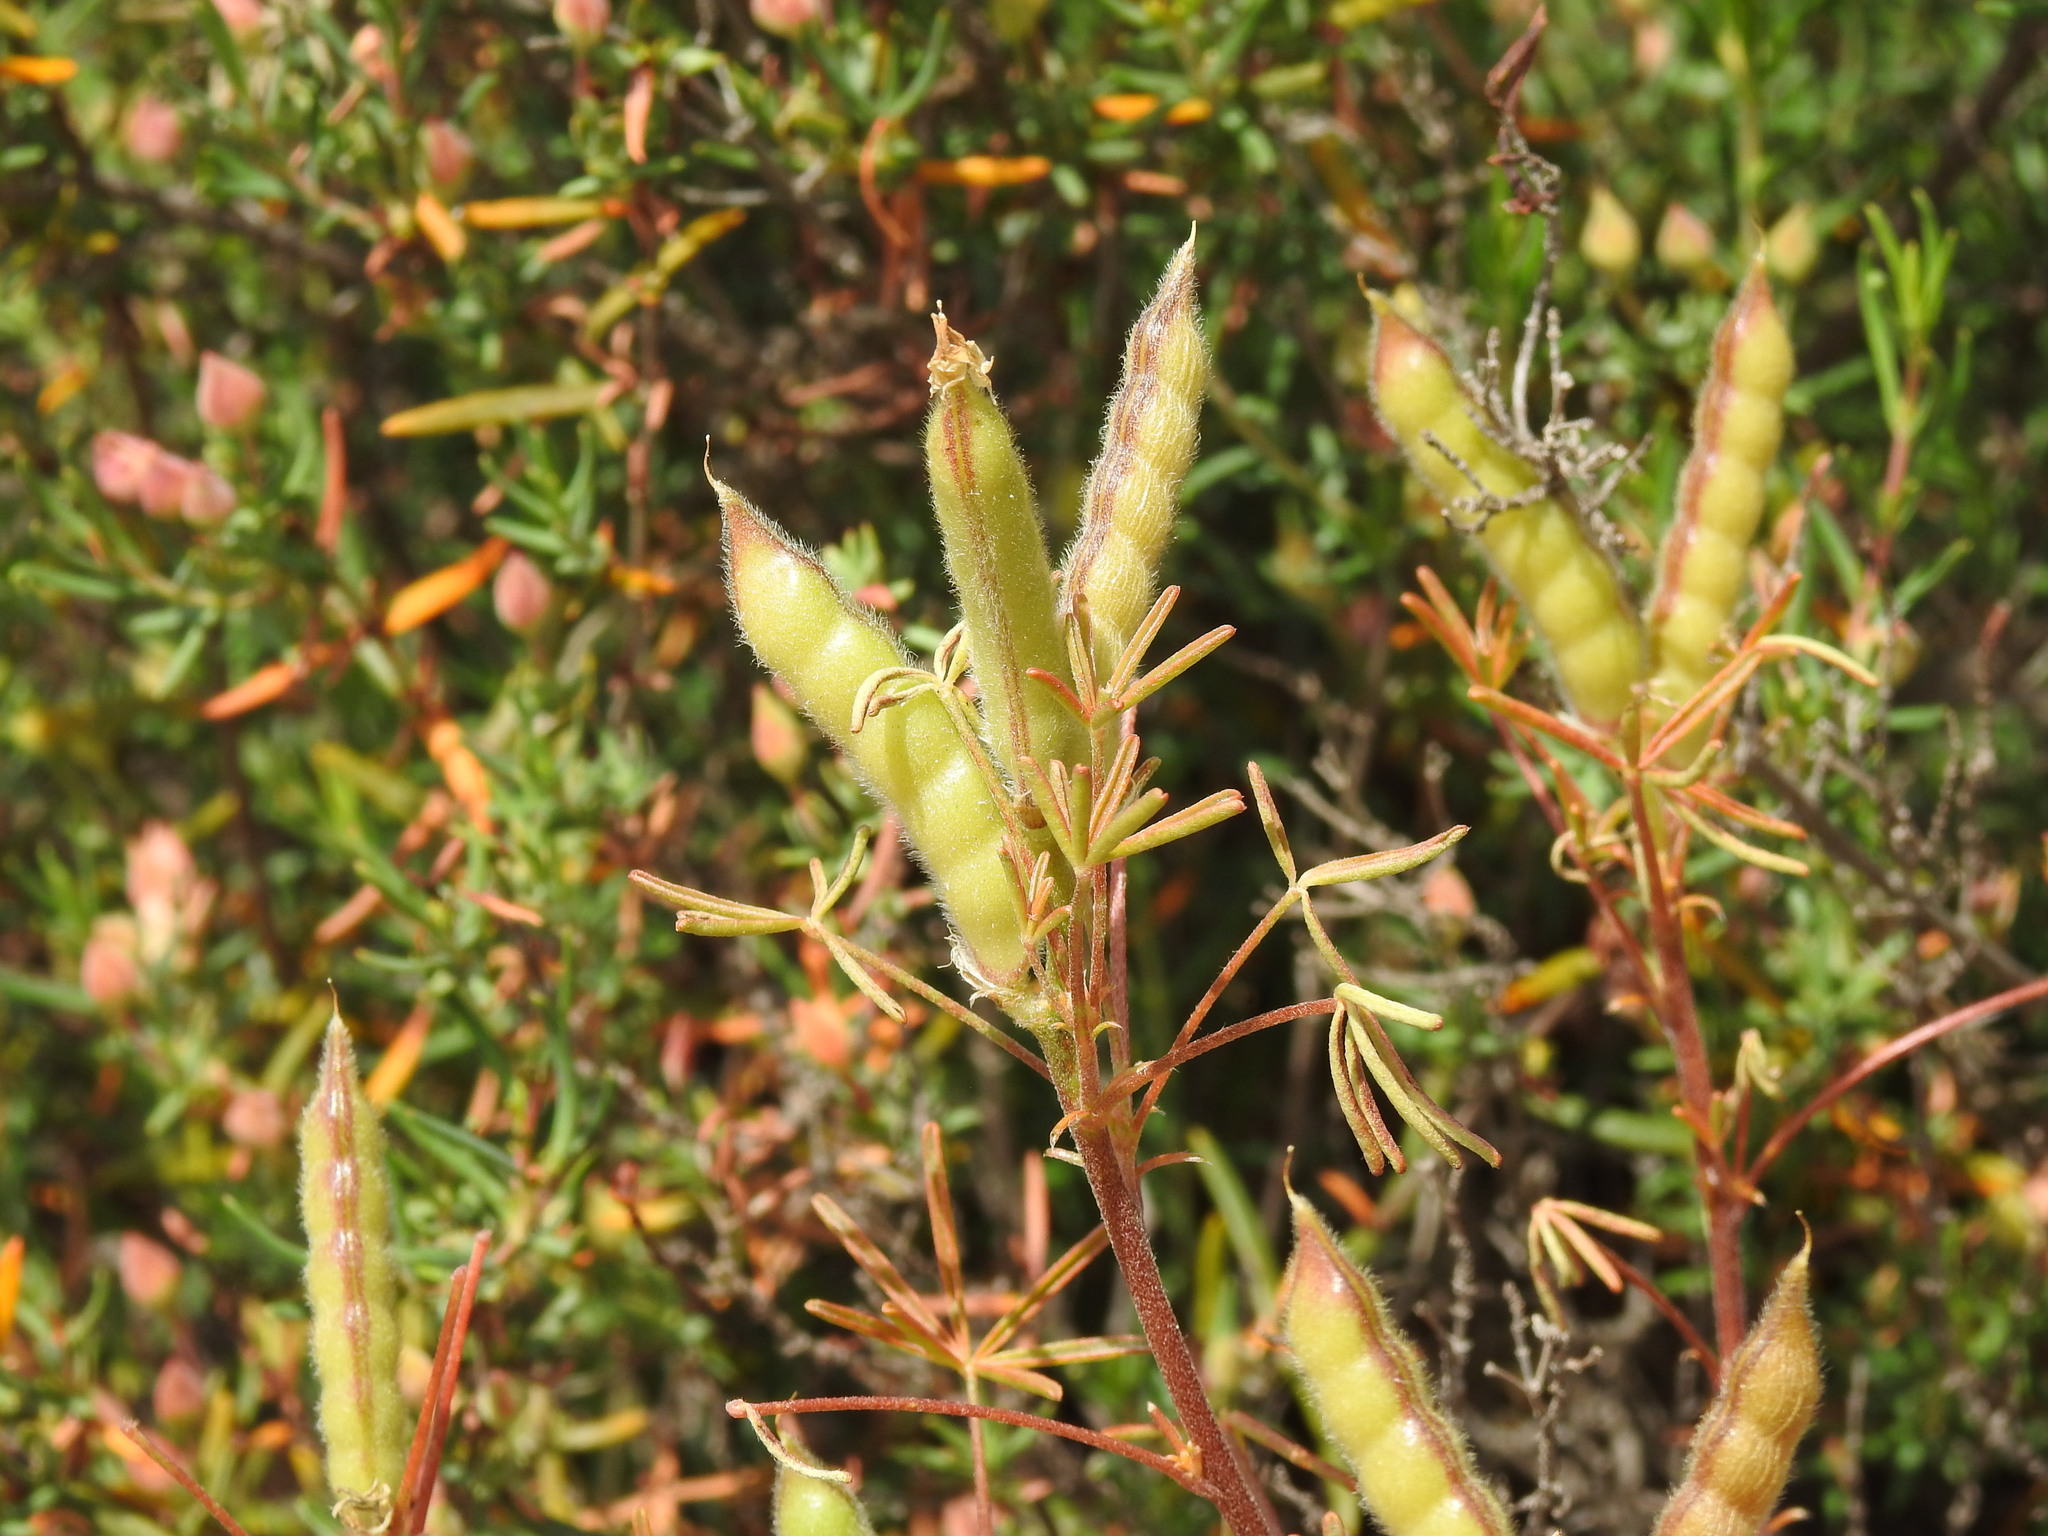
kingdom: Plantae
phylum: Tracheophyta
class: Magnoliopsida
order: Fabales
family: Fabaceae
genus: Lupinus
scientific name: Lupinus angustifolius
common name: Narrow-leaved lupin
